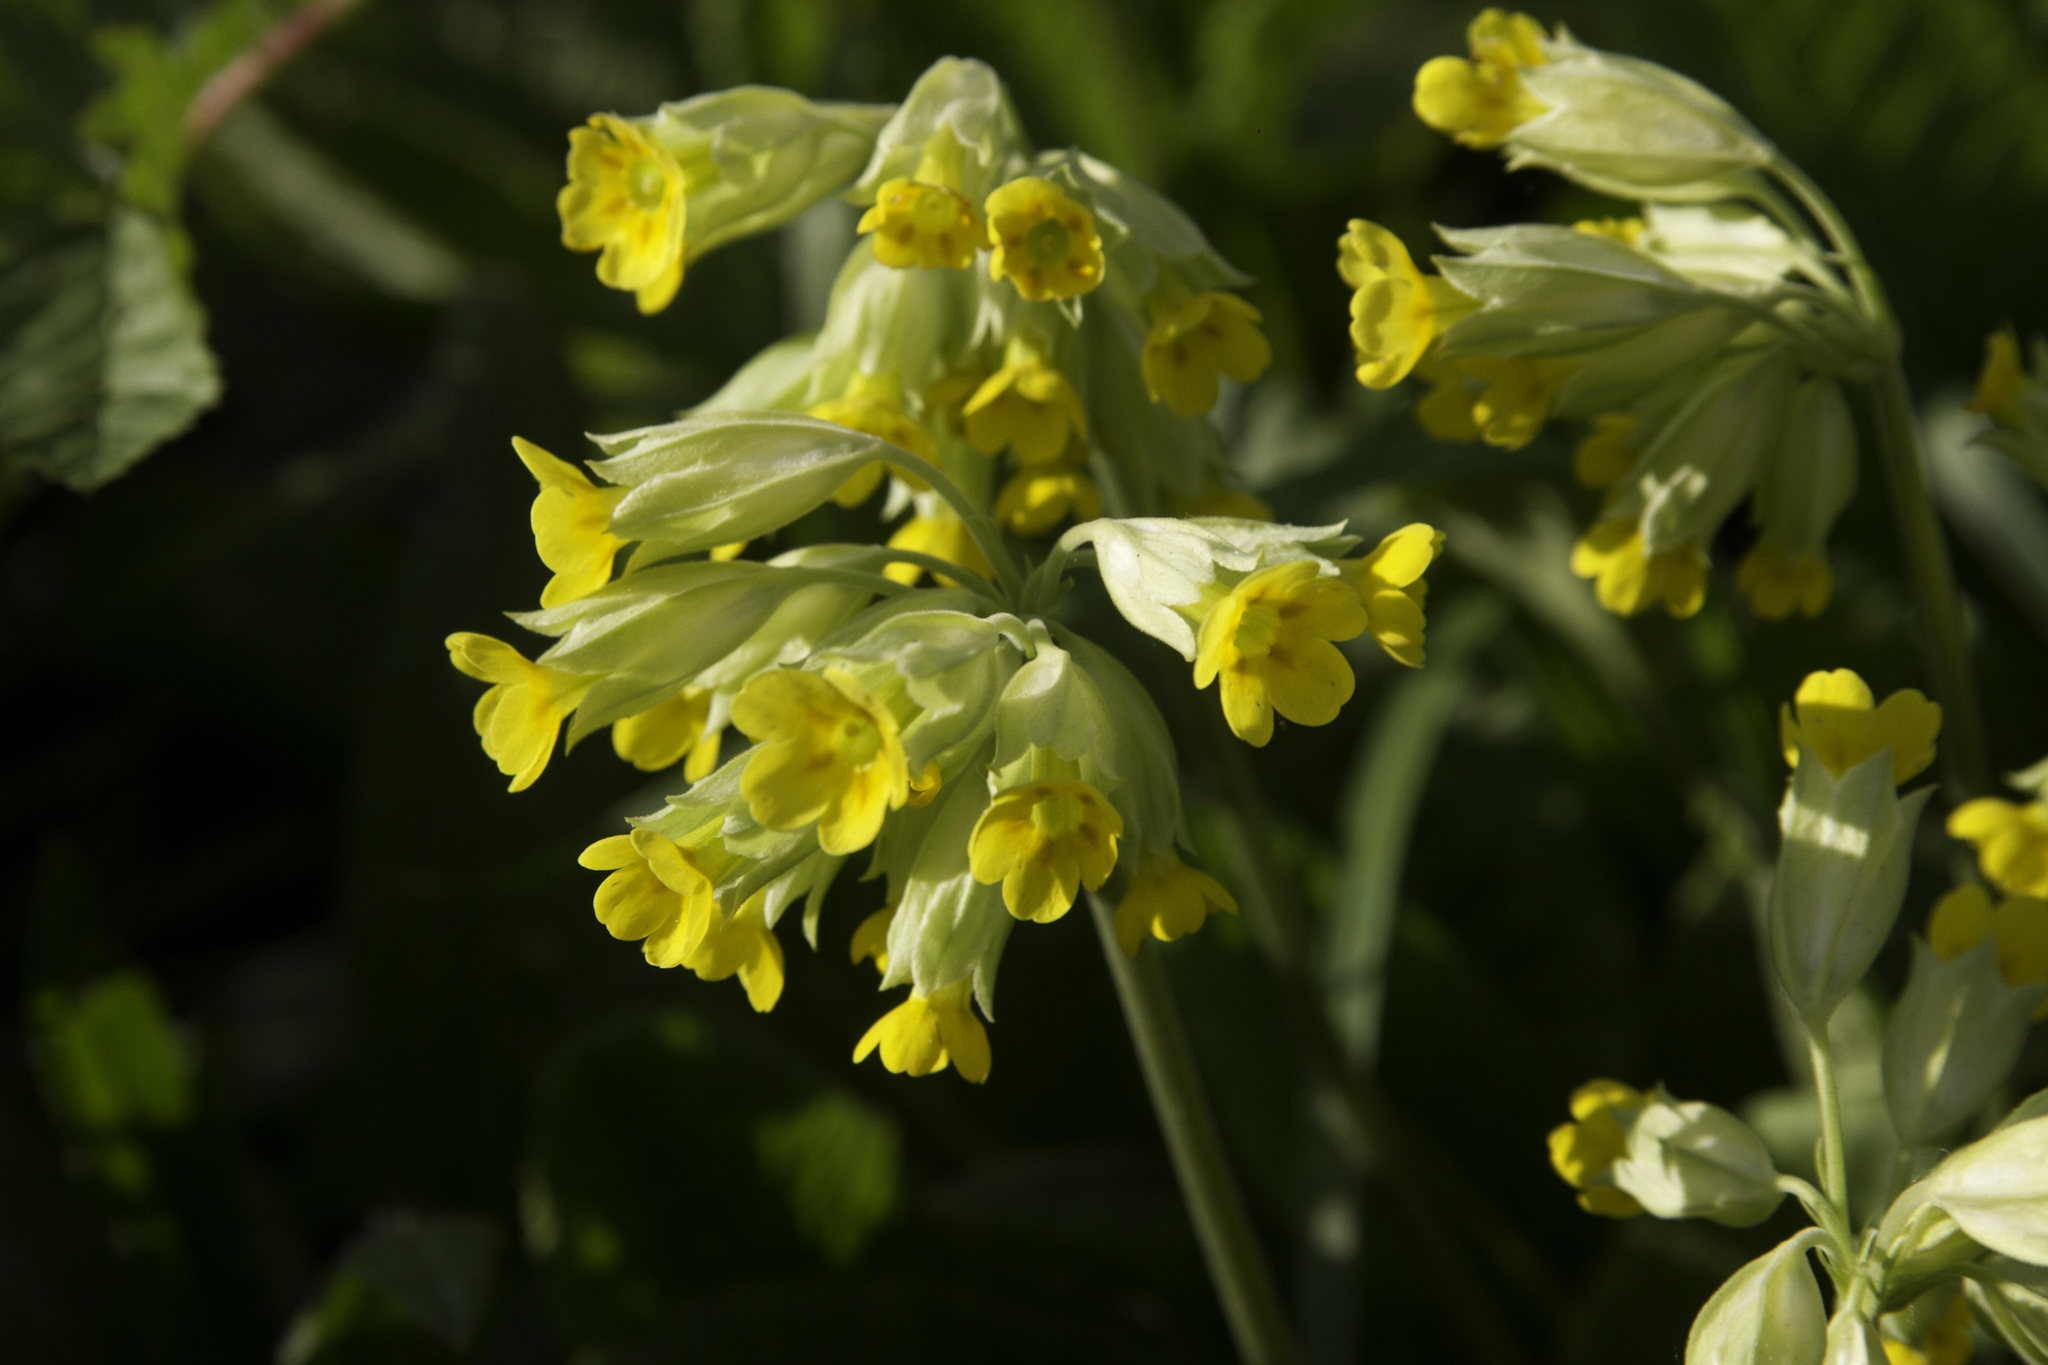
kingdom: Plantae
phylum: Tracheophyta
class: Magnoliopsida
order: Ericales
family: Primulaceae
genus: Primula
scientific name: Primula veris
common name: Cowslip
